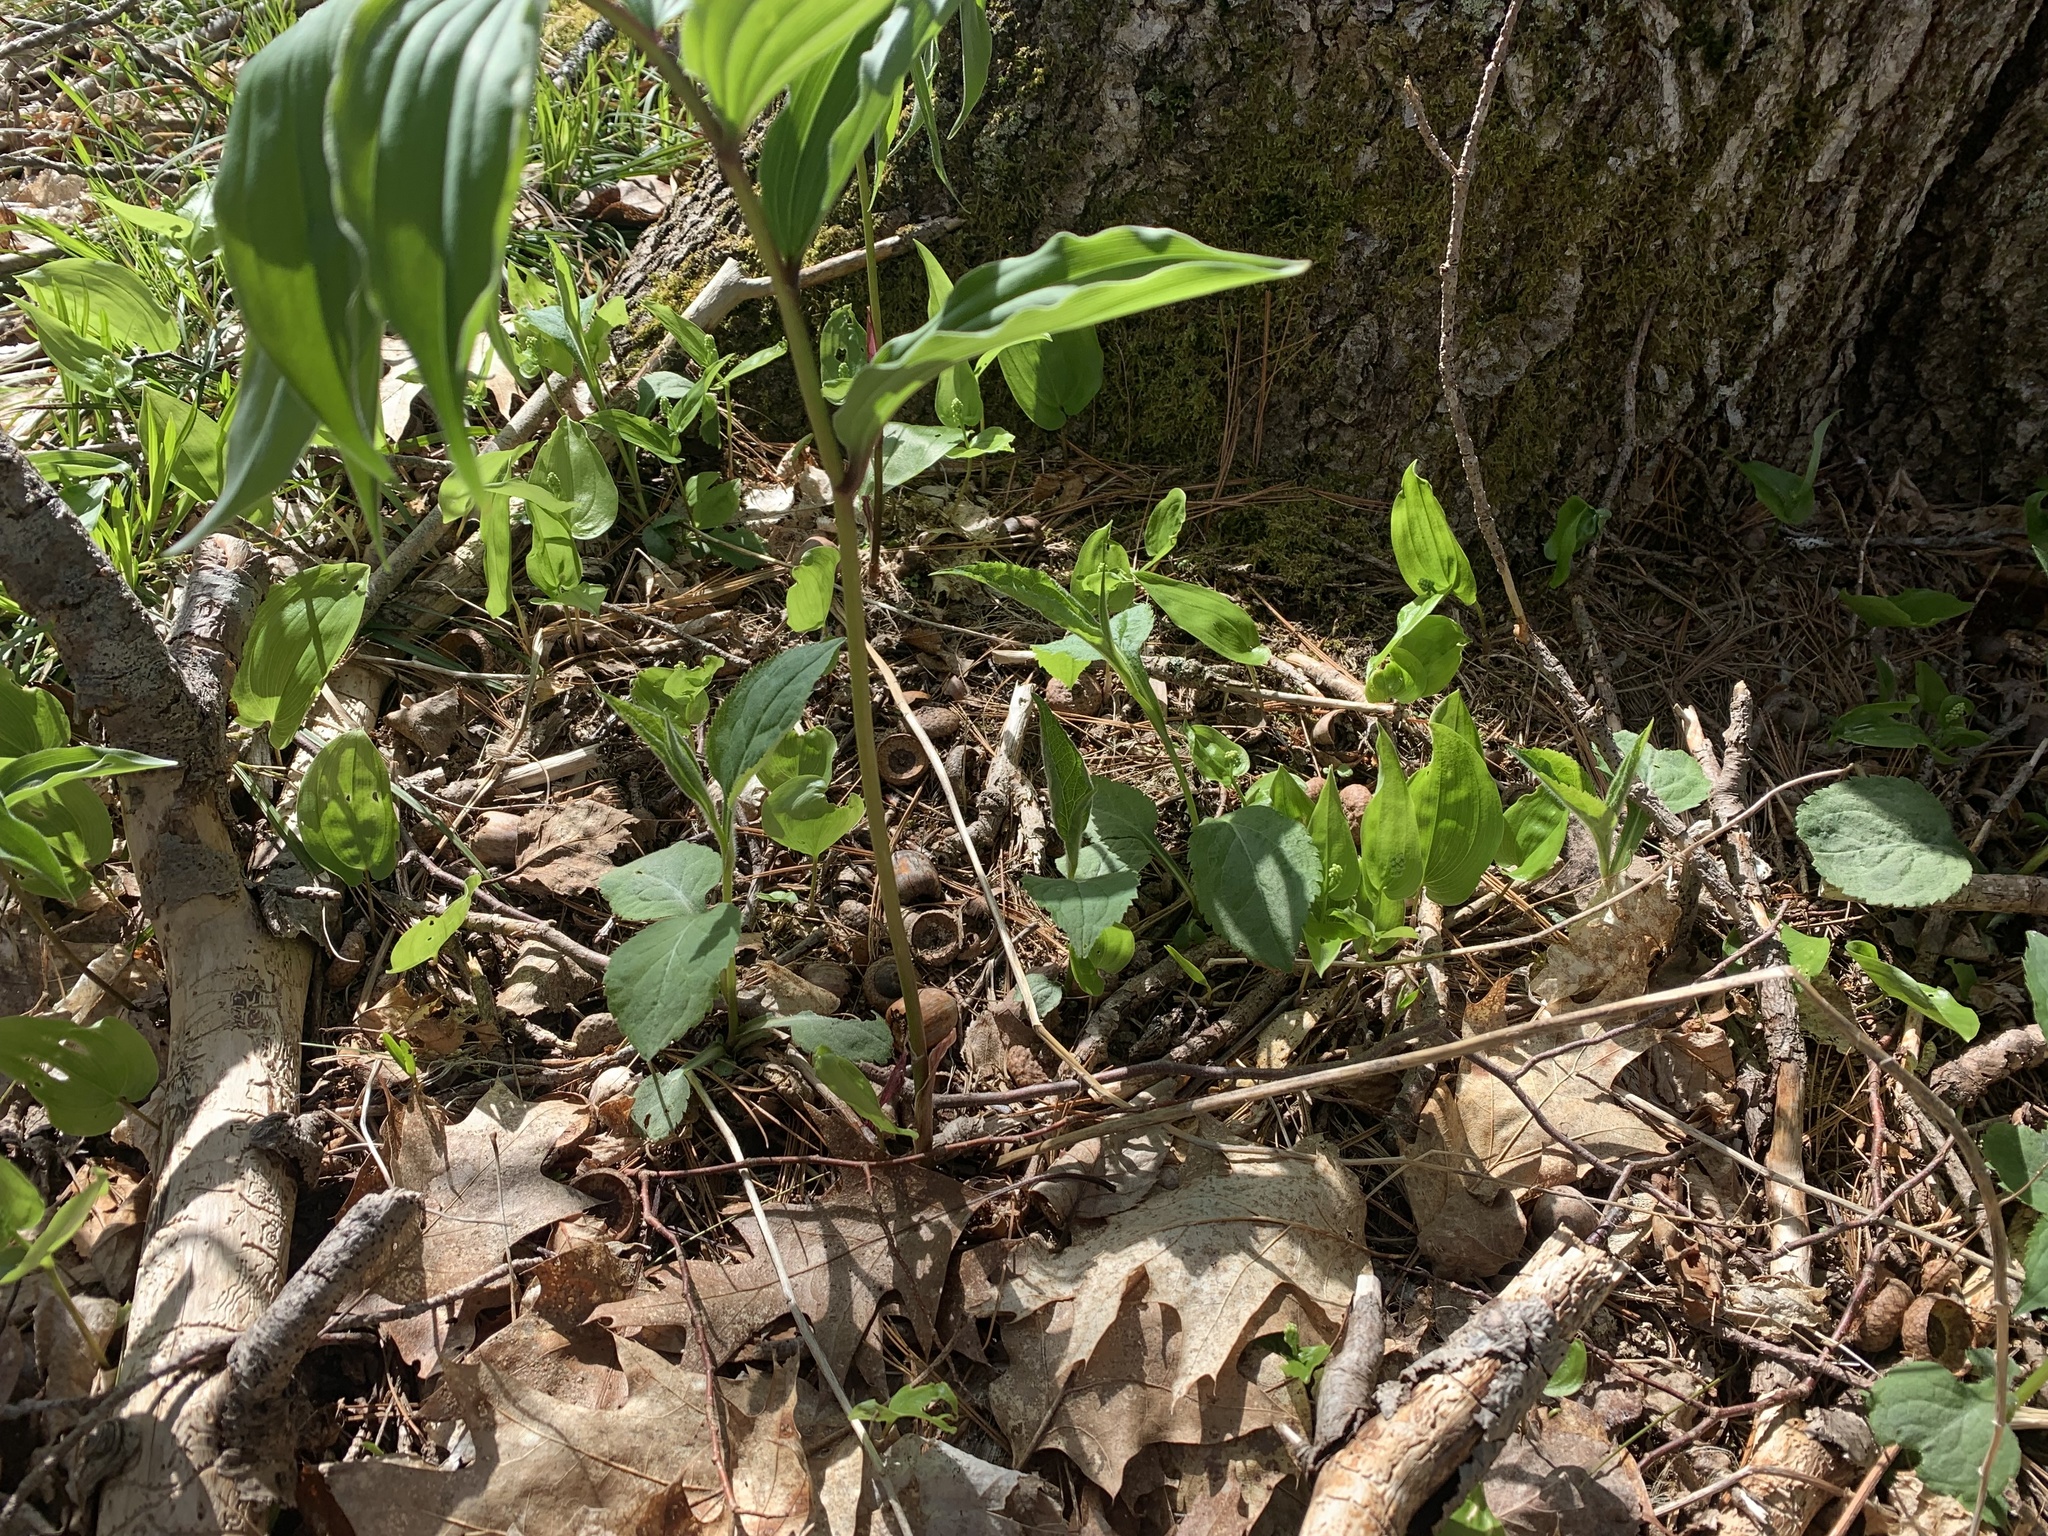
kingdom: Plantae
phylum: Tracheophyta
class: Liliopsida
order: Asparagales
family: Asparagaceae
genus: Maianthemum
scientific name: Maianthemum racemosum
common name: False spikenard
